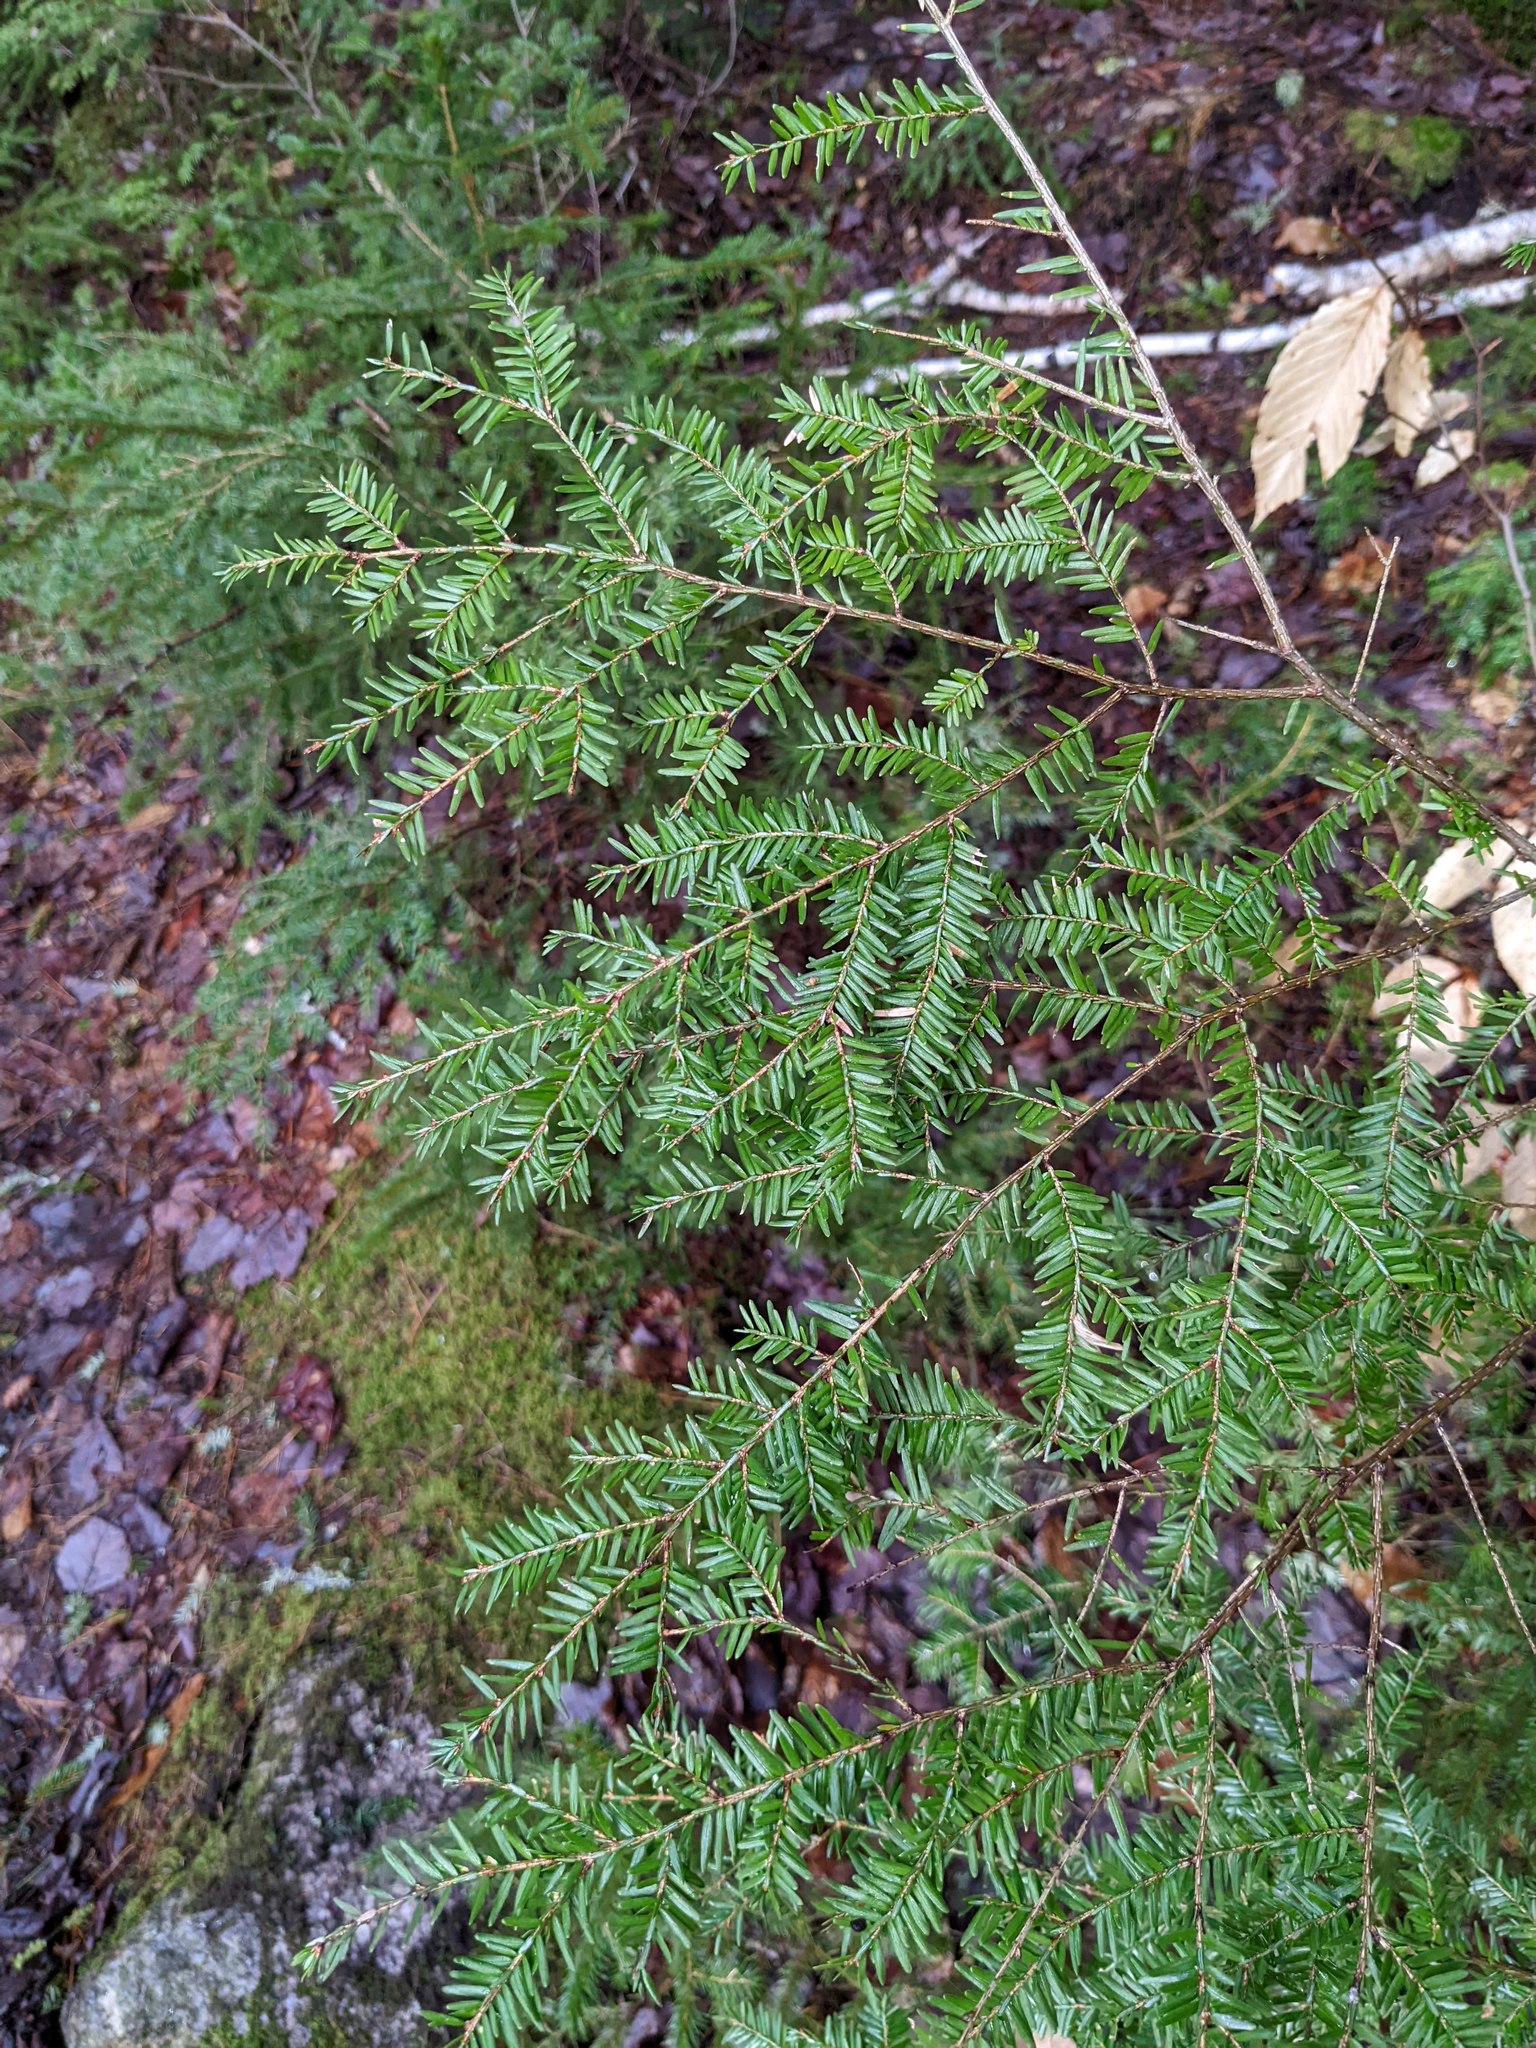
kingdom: Plantae
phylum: Tracheophyta
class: Pinopsida
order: Pinales
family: Pinaceae
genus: Tsuga
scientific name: Tsuga canadensis
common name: Eastern hemlock
